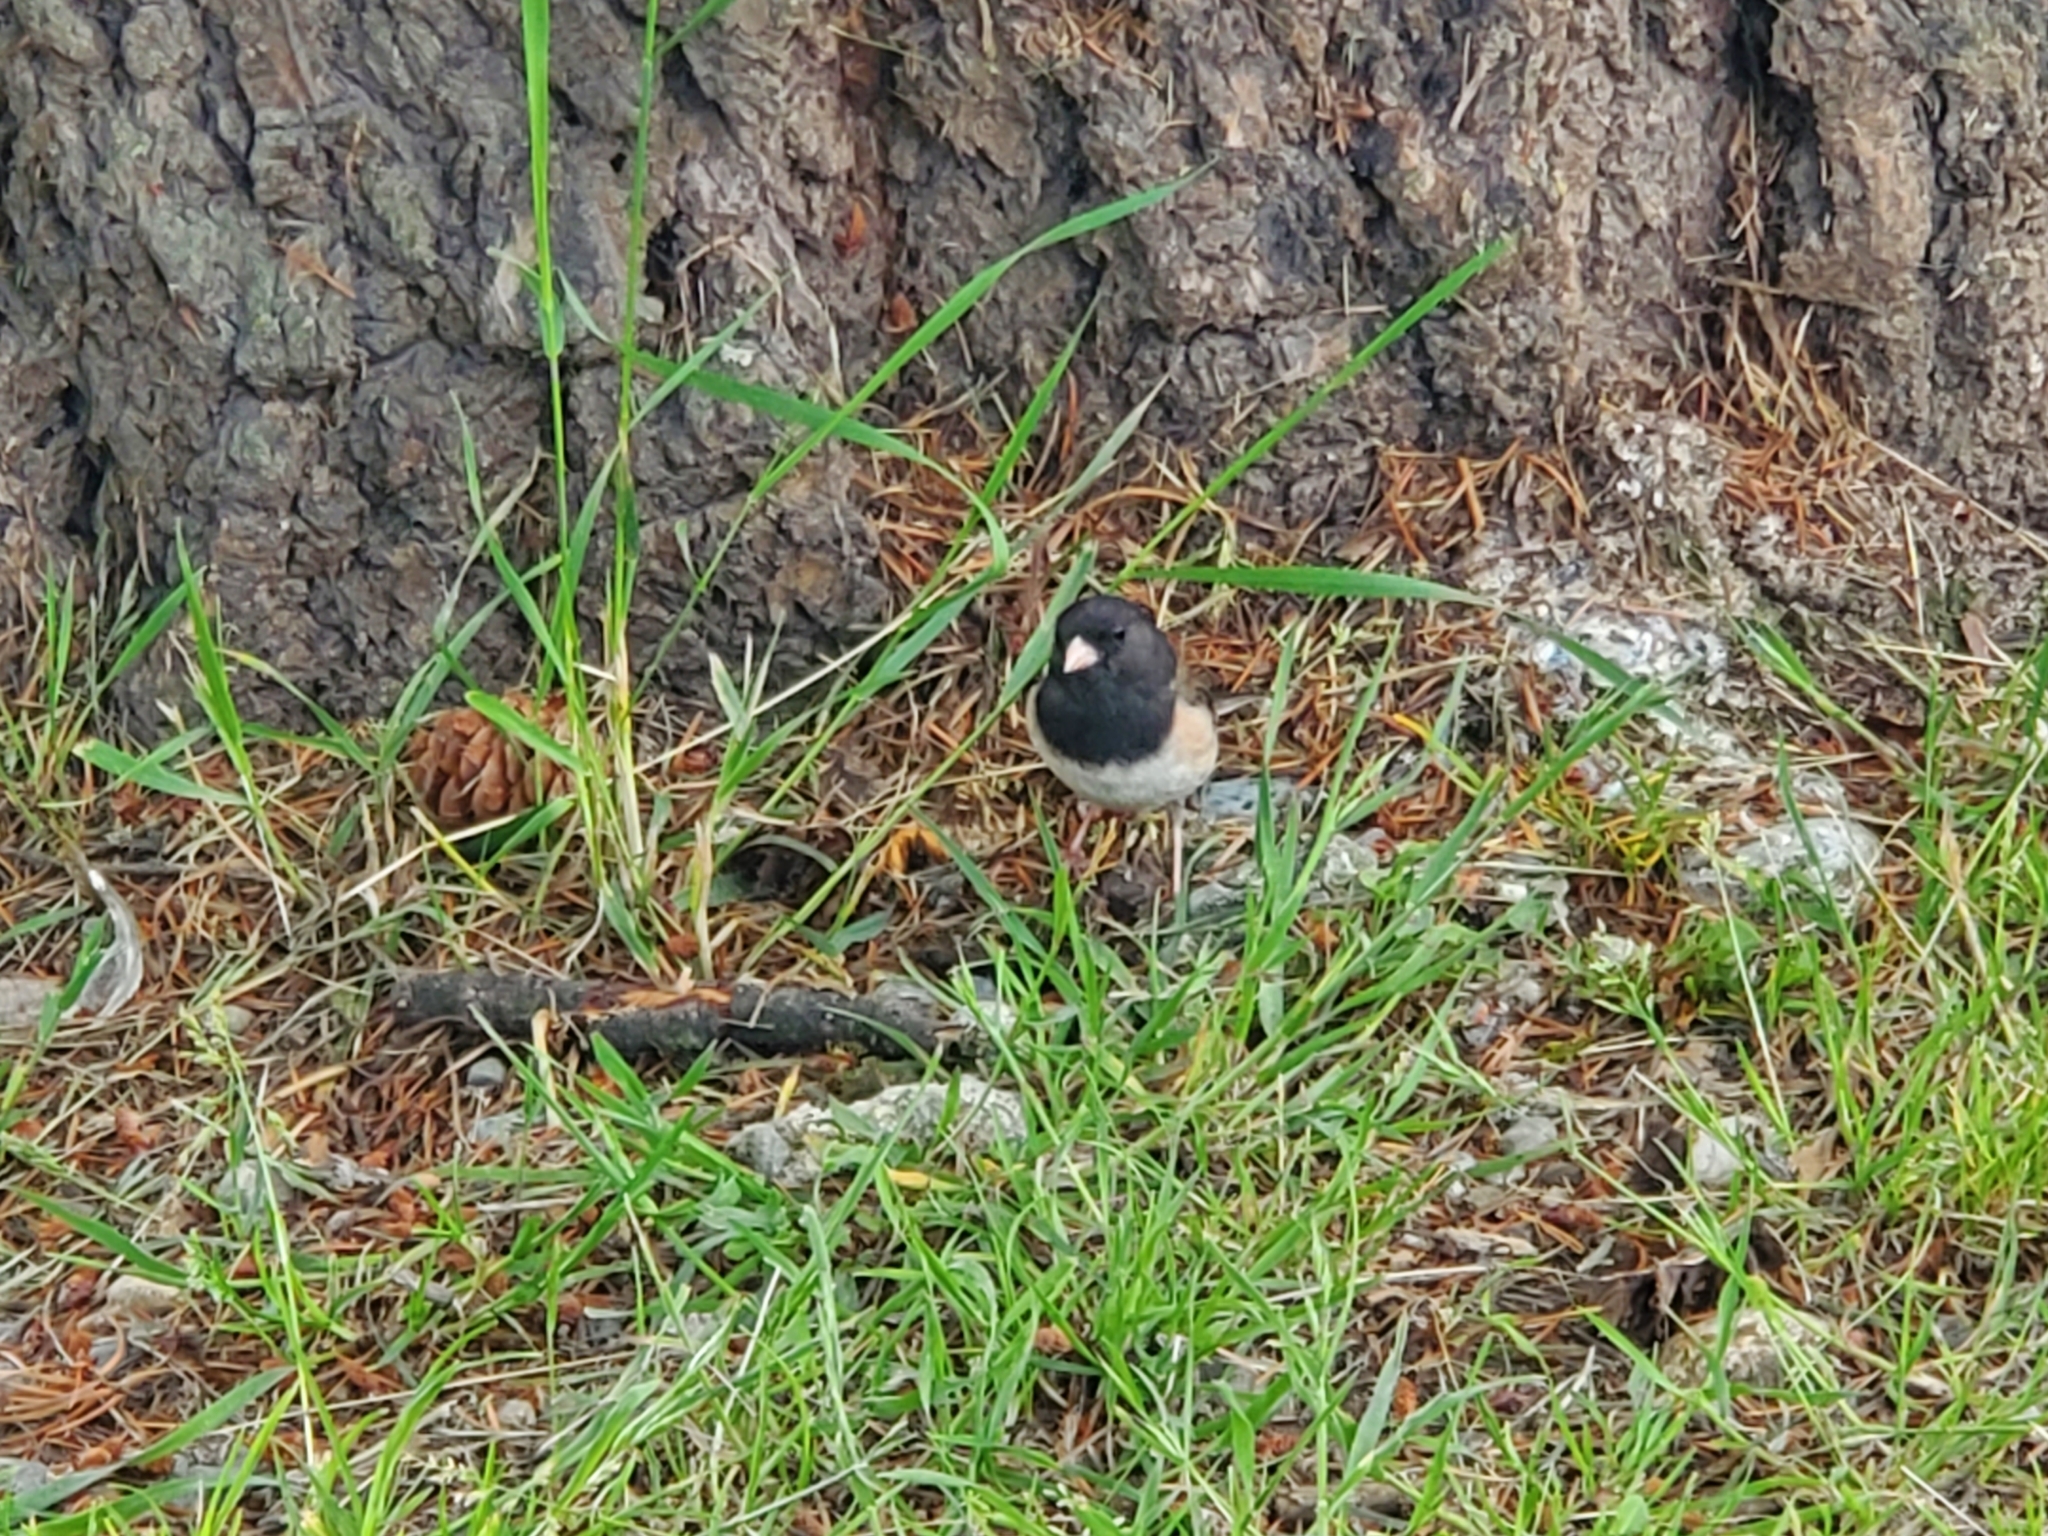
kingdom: Animalia
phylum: Chordata
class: Aves
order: Passeriformes
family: Passerellidae
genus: Junco
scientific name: Junco hyemalis
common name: Dark-eyed junco
